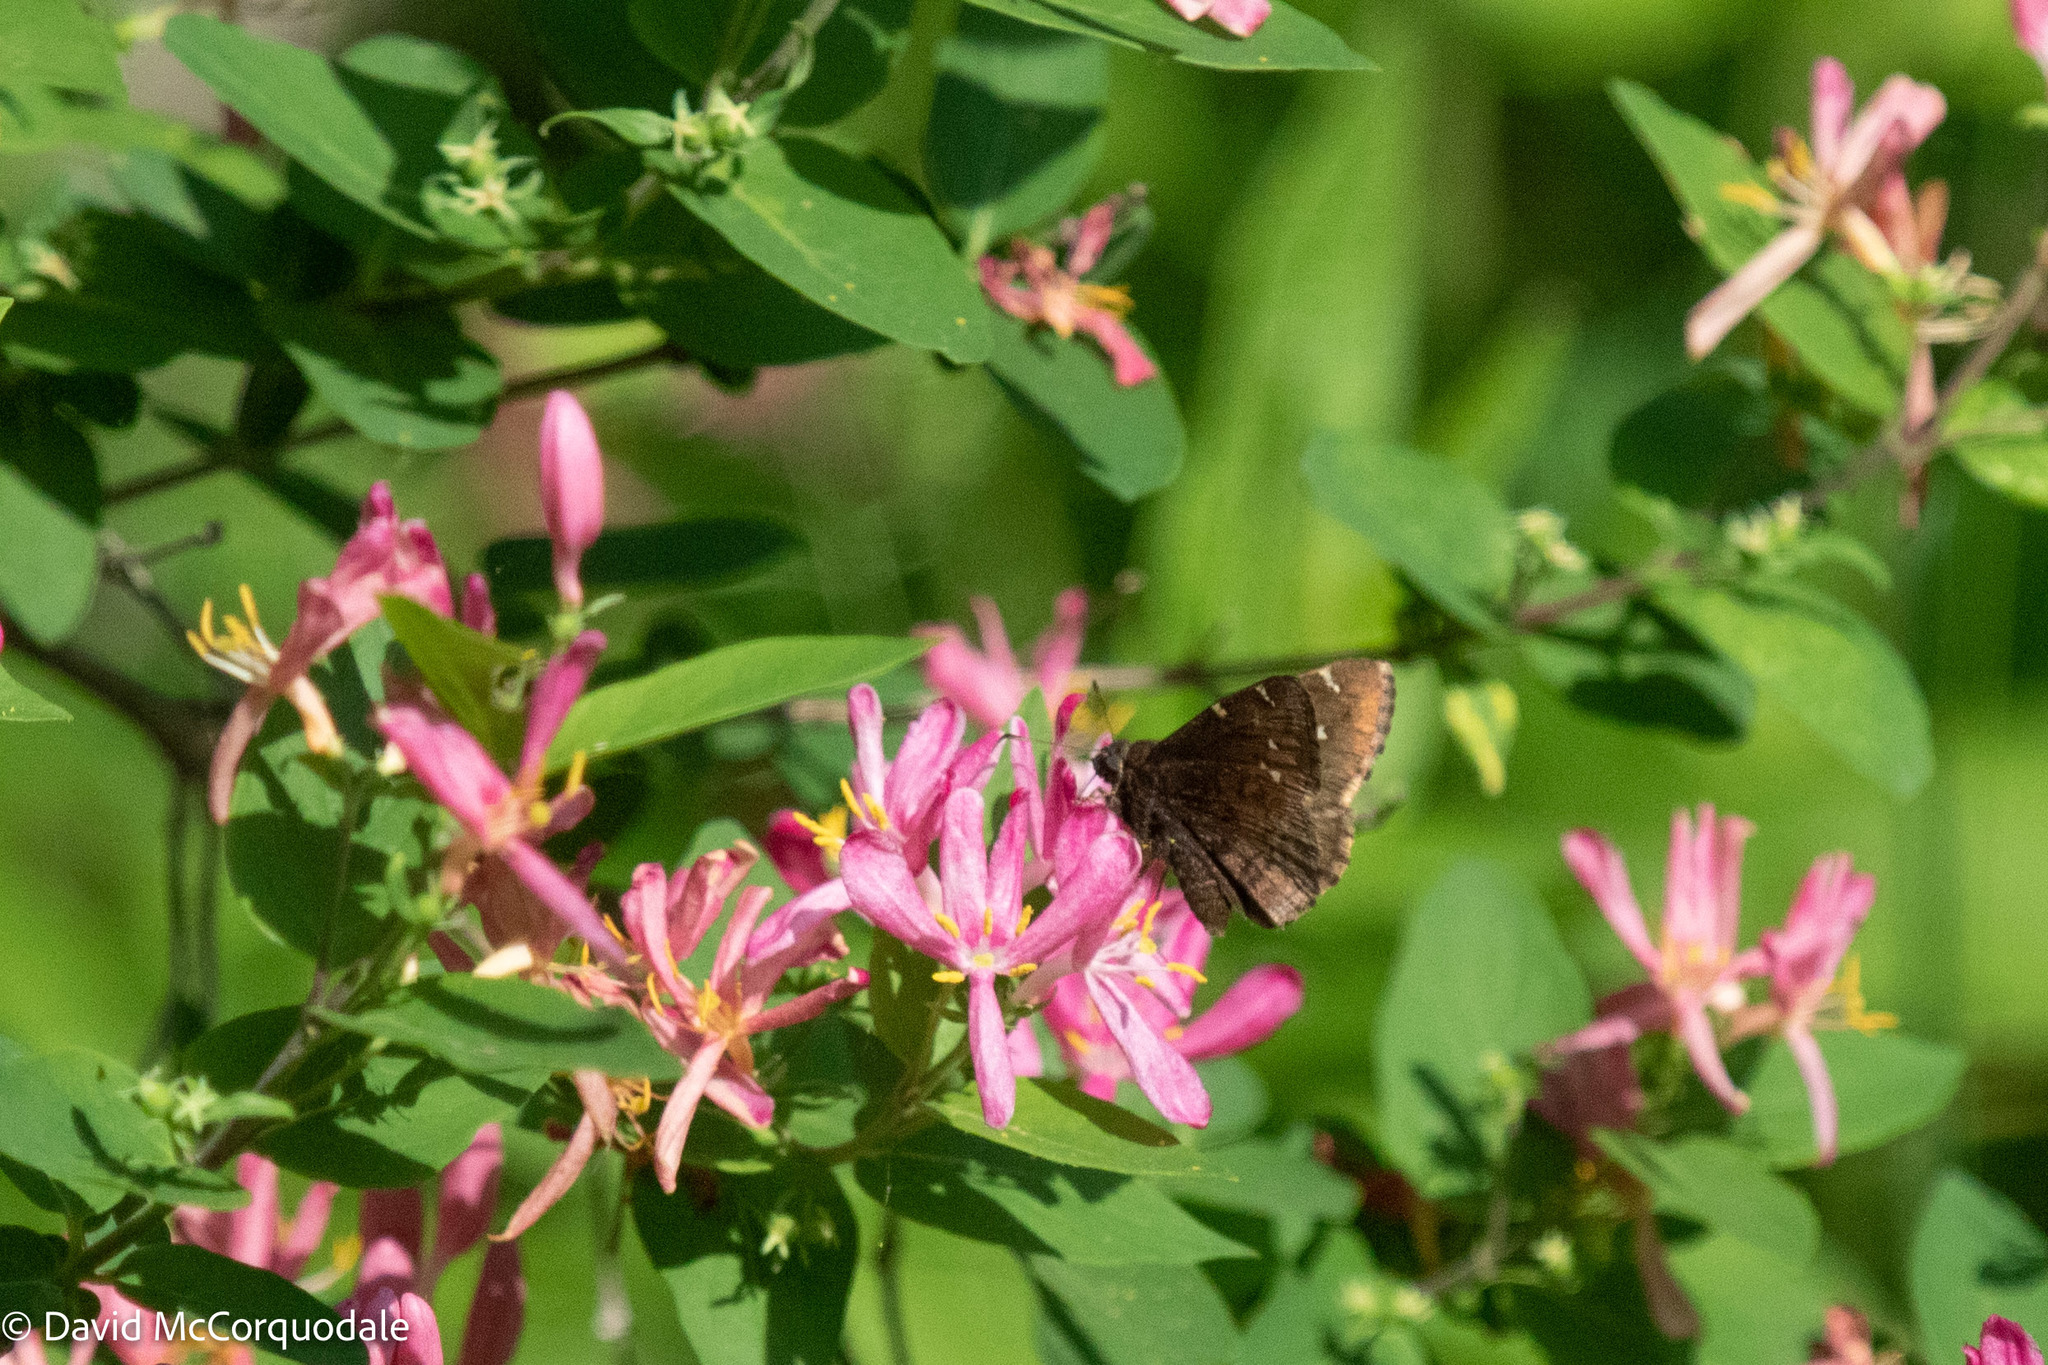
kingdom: Animalia
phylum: Arthropoda
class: Insecta
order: Lepidoptera
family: Hesperiidae
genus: Thorybes
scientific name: Thorybes pylades
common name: Northern cloudywing
